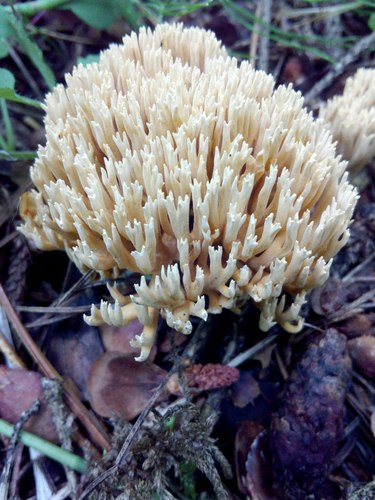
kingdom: Fungi
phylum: Basidiomycota
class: Agaricomycetes
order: Gomphales
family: Lentariaceae
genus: Lentaria
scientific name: Lentaria micheneri
